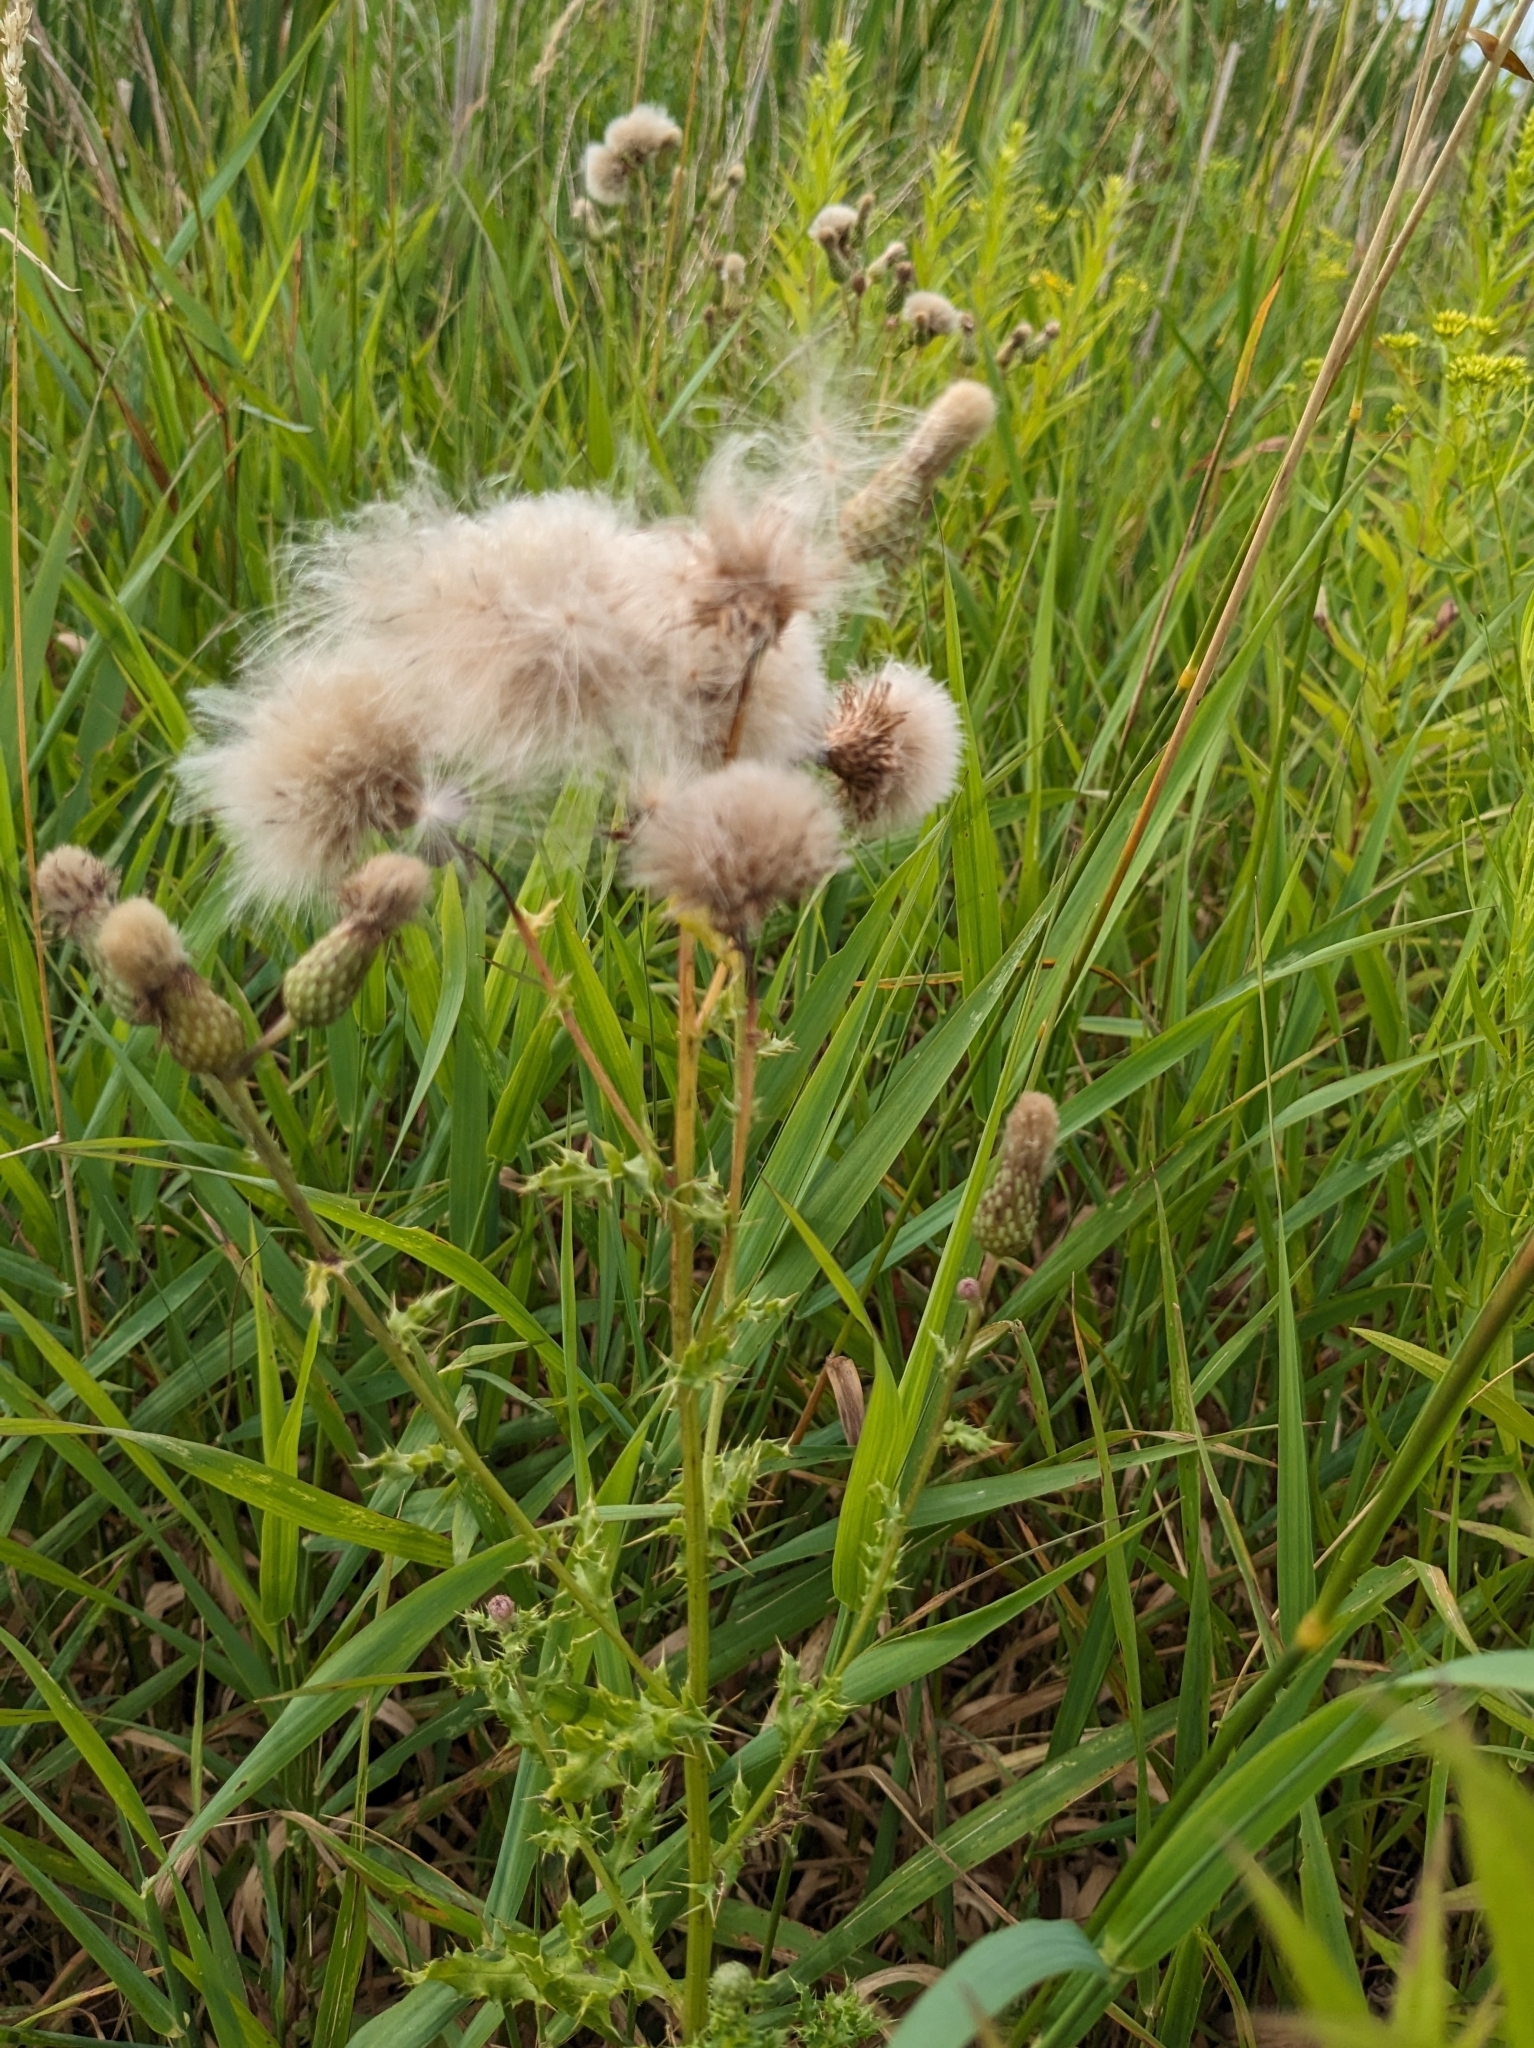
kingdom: Plantae
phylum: Tracheophyta
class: Magnoliopsida
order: Asterales
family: Asteraceae
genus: Cirsium
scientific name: Cirsium arvense
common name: Creeping thistle
